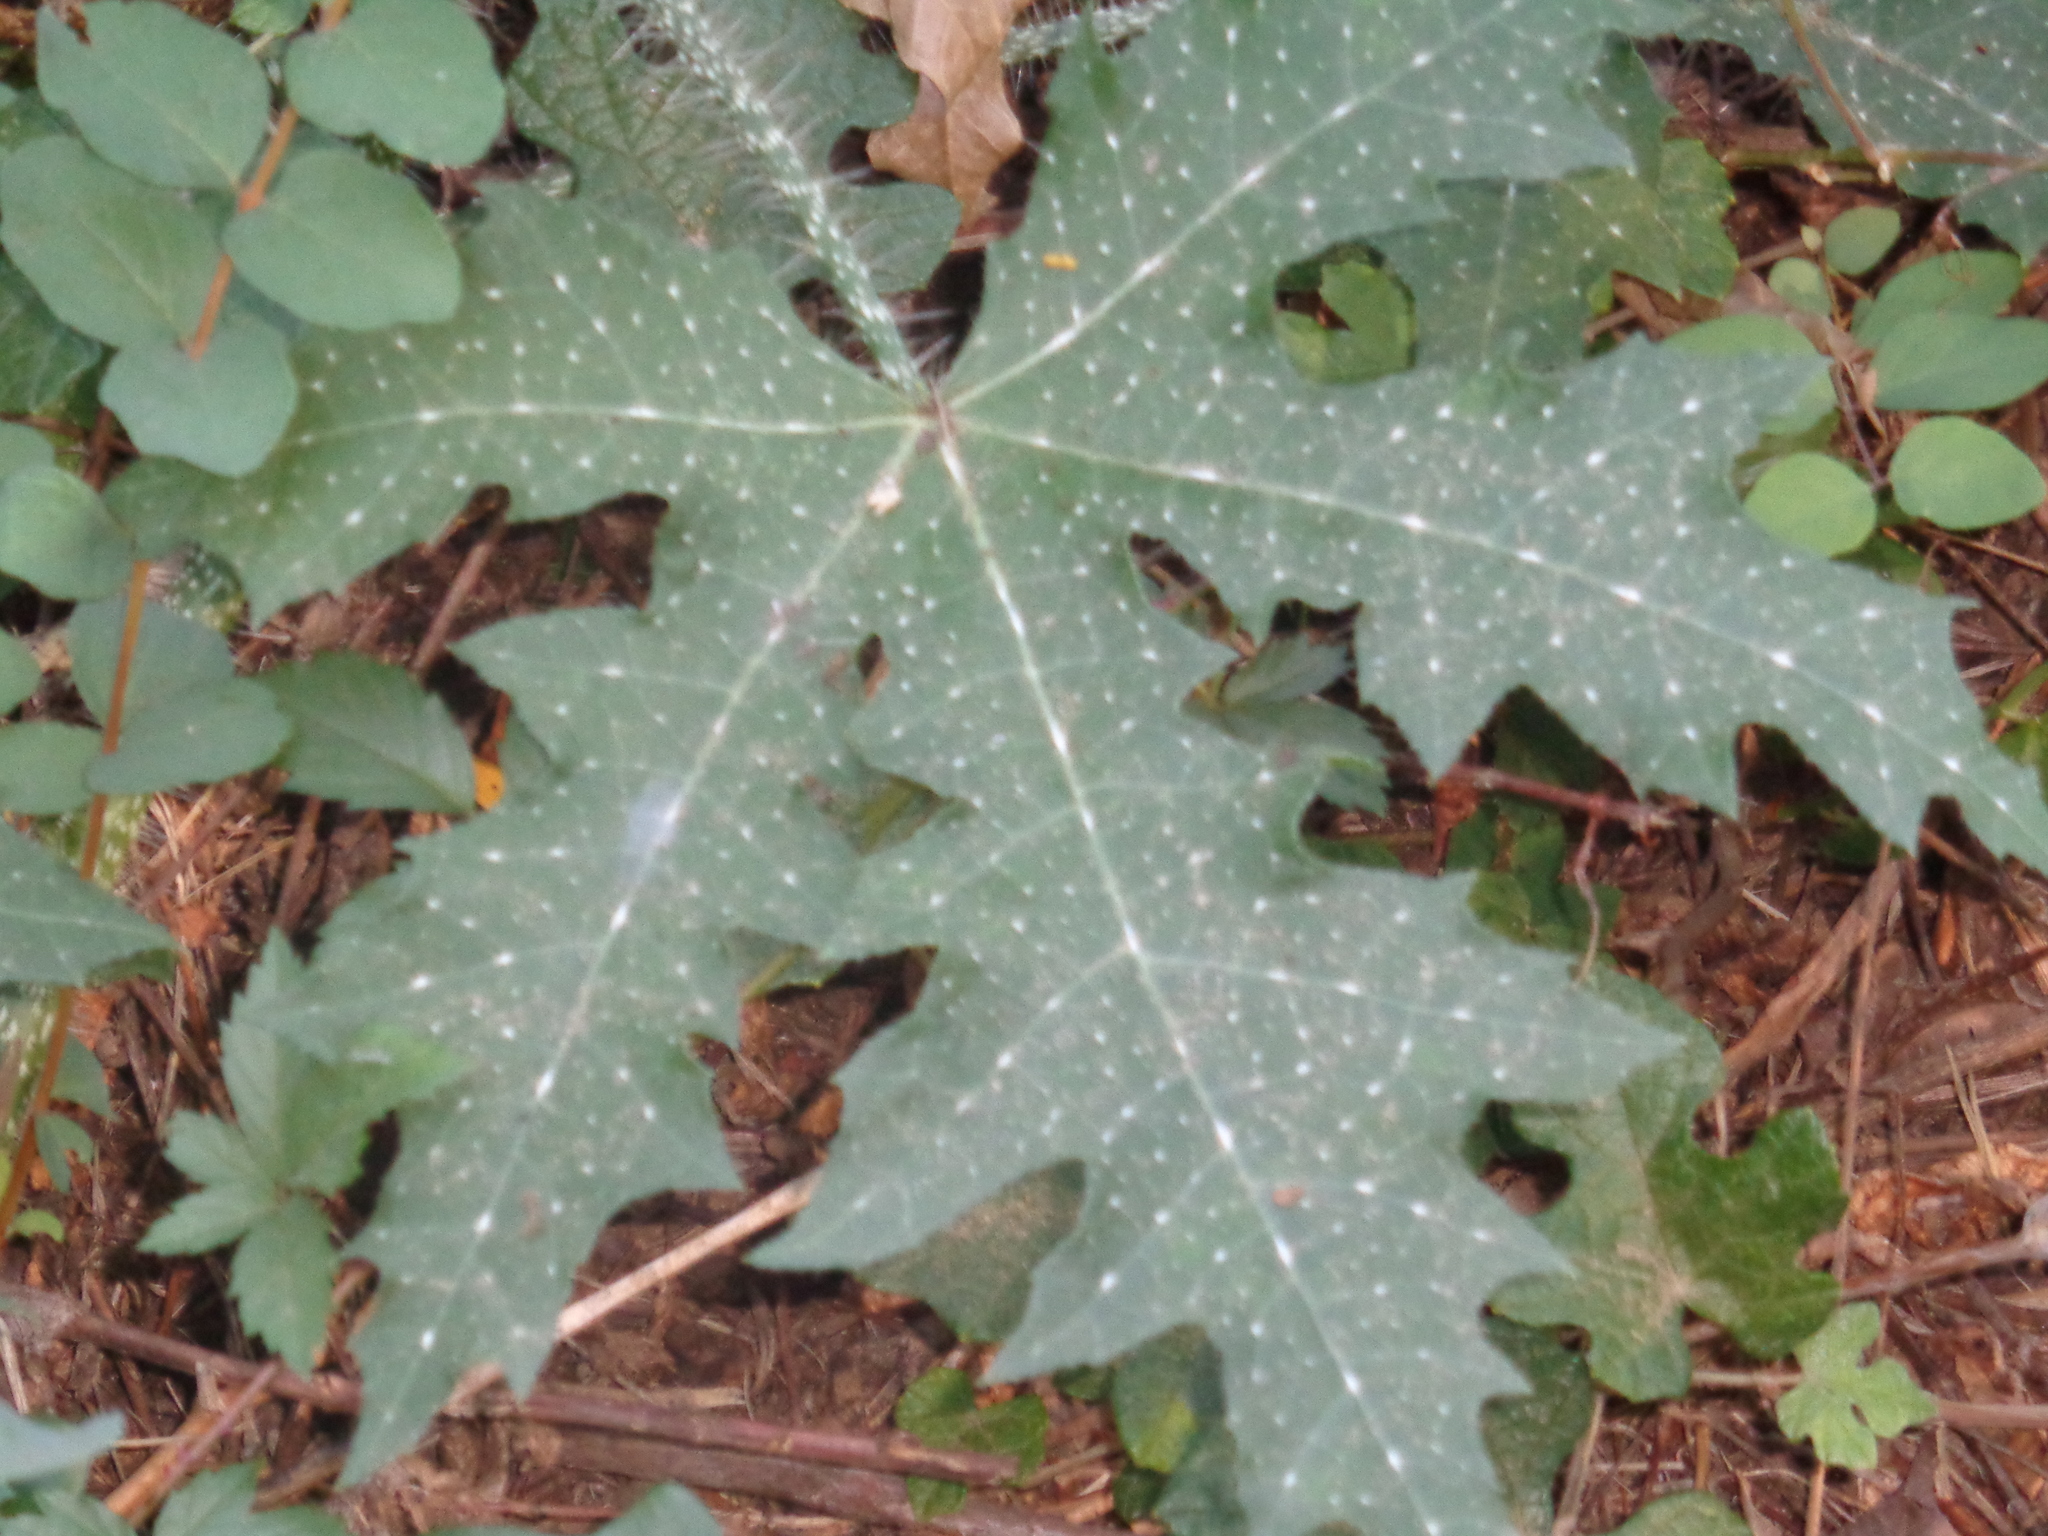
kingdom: Plantae
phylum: Tracheophyta
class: Magnoliopsida
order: Malpighiales
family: Euphorbiaceae
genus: Cnidoscolus
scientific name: Cnidoscolus texanus
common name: Texas bull-nettle
